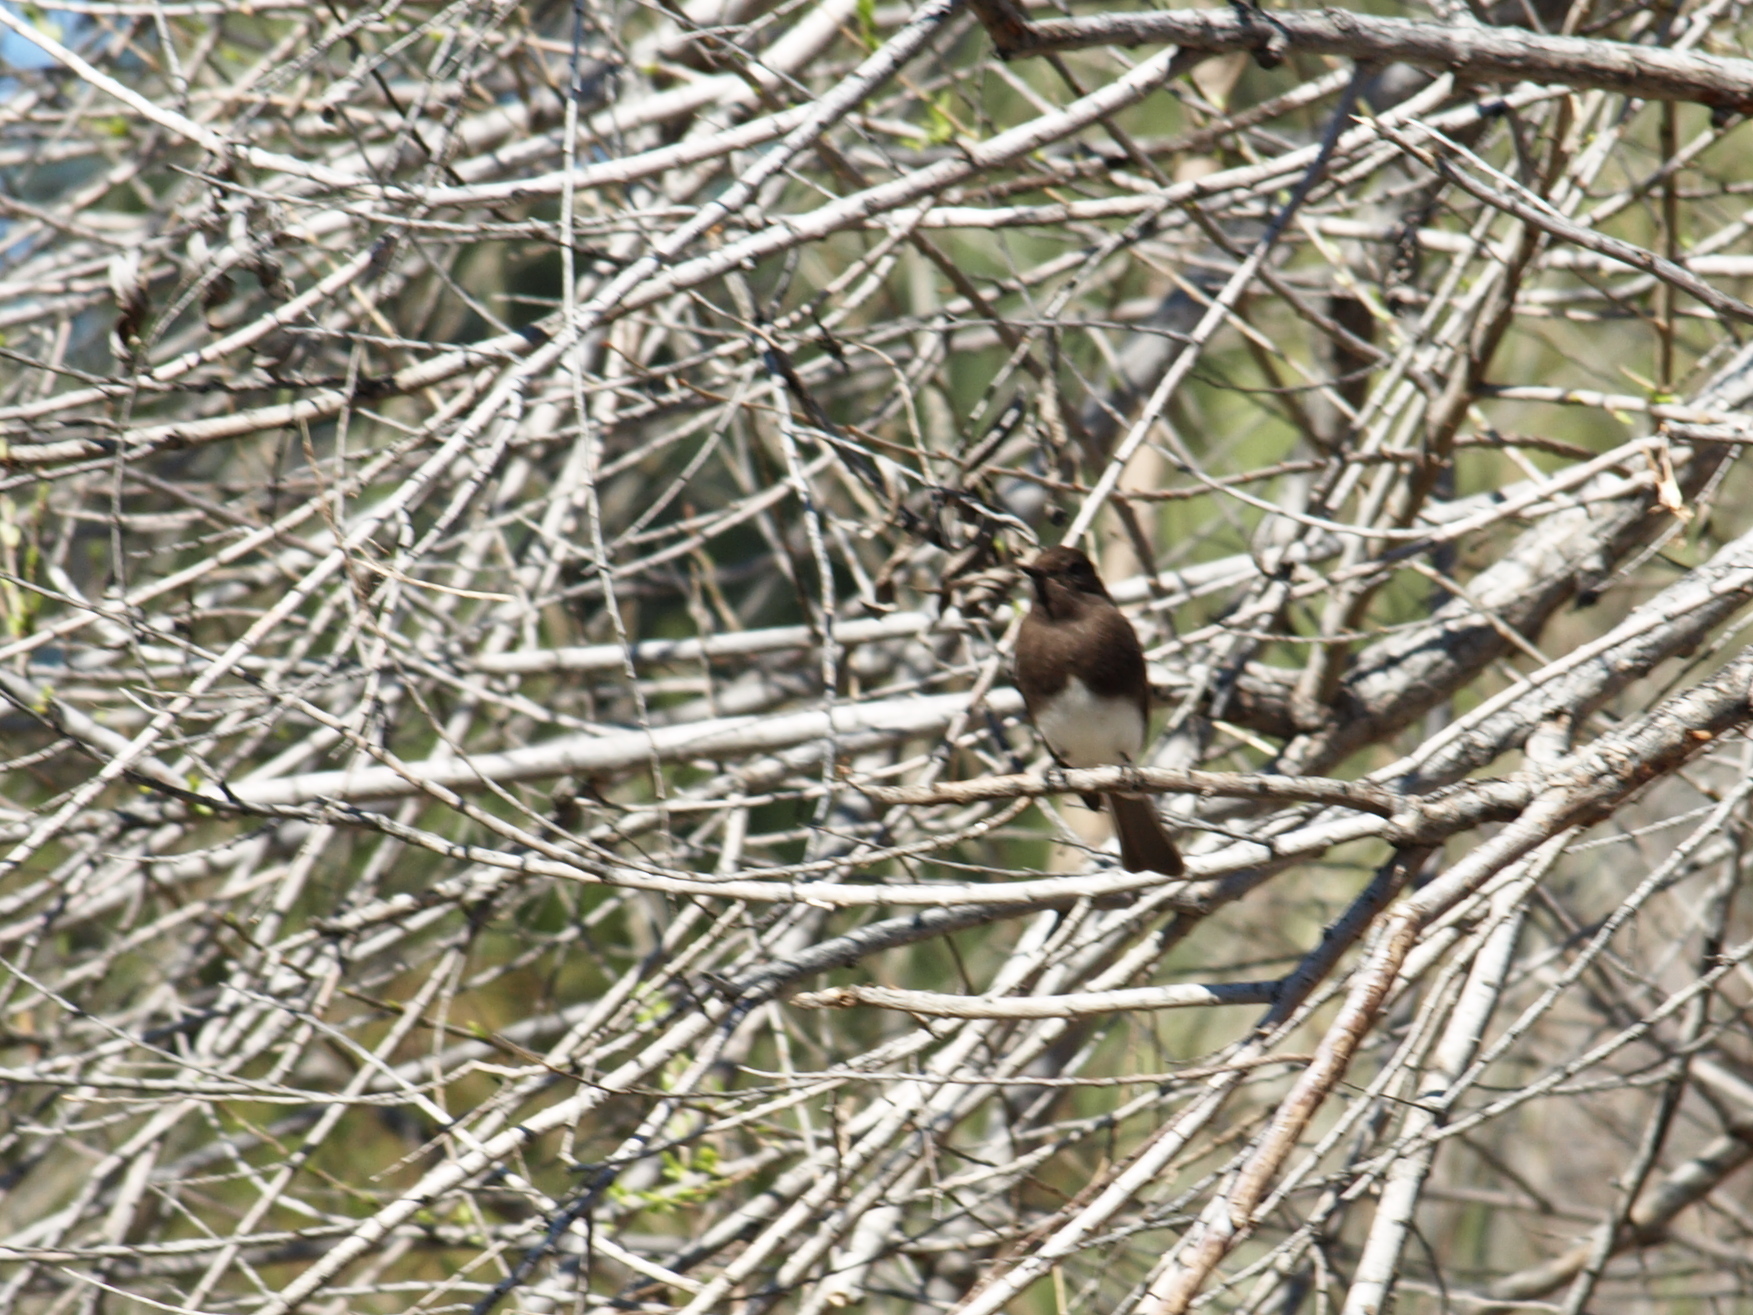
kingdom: Animalia
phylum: Chordata
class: Aves
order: Passeriformes
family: Tyrannidae
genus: Sayornis
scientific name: Sayornis nigricans
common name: Black phoebe
